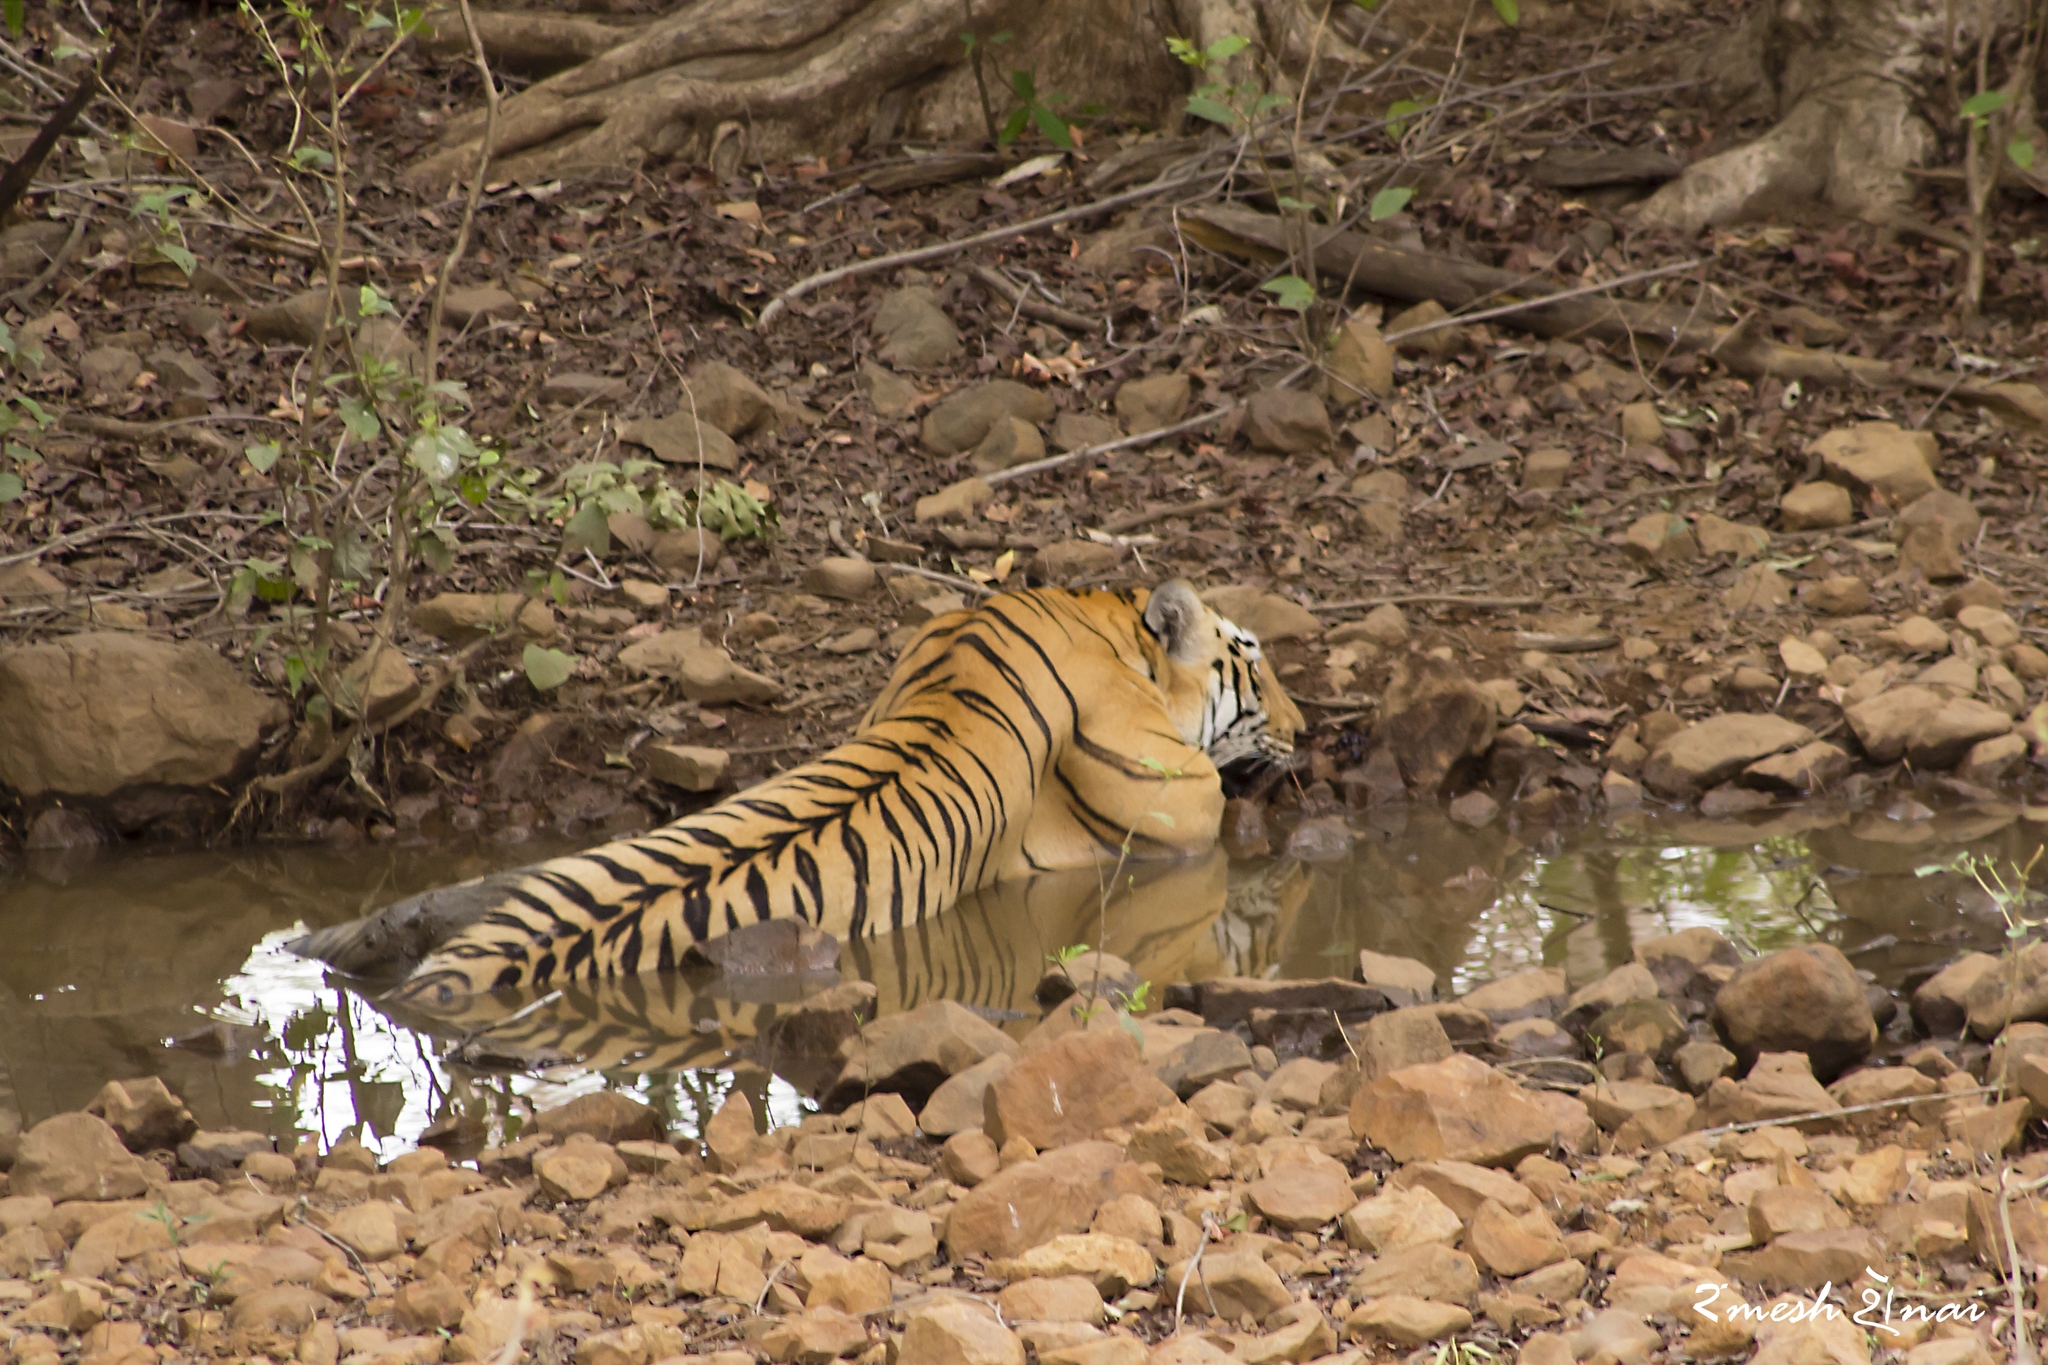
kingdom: Animalia
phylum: Chordata
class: Mammalia
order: Carnivora
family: Felidae
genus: Panthera
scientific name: Panthera tigris
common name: Tiger
